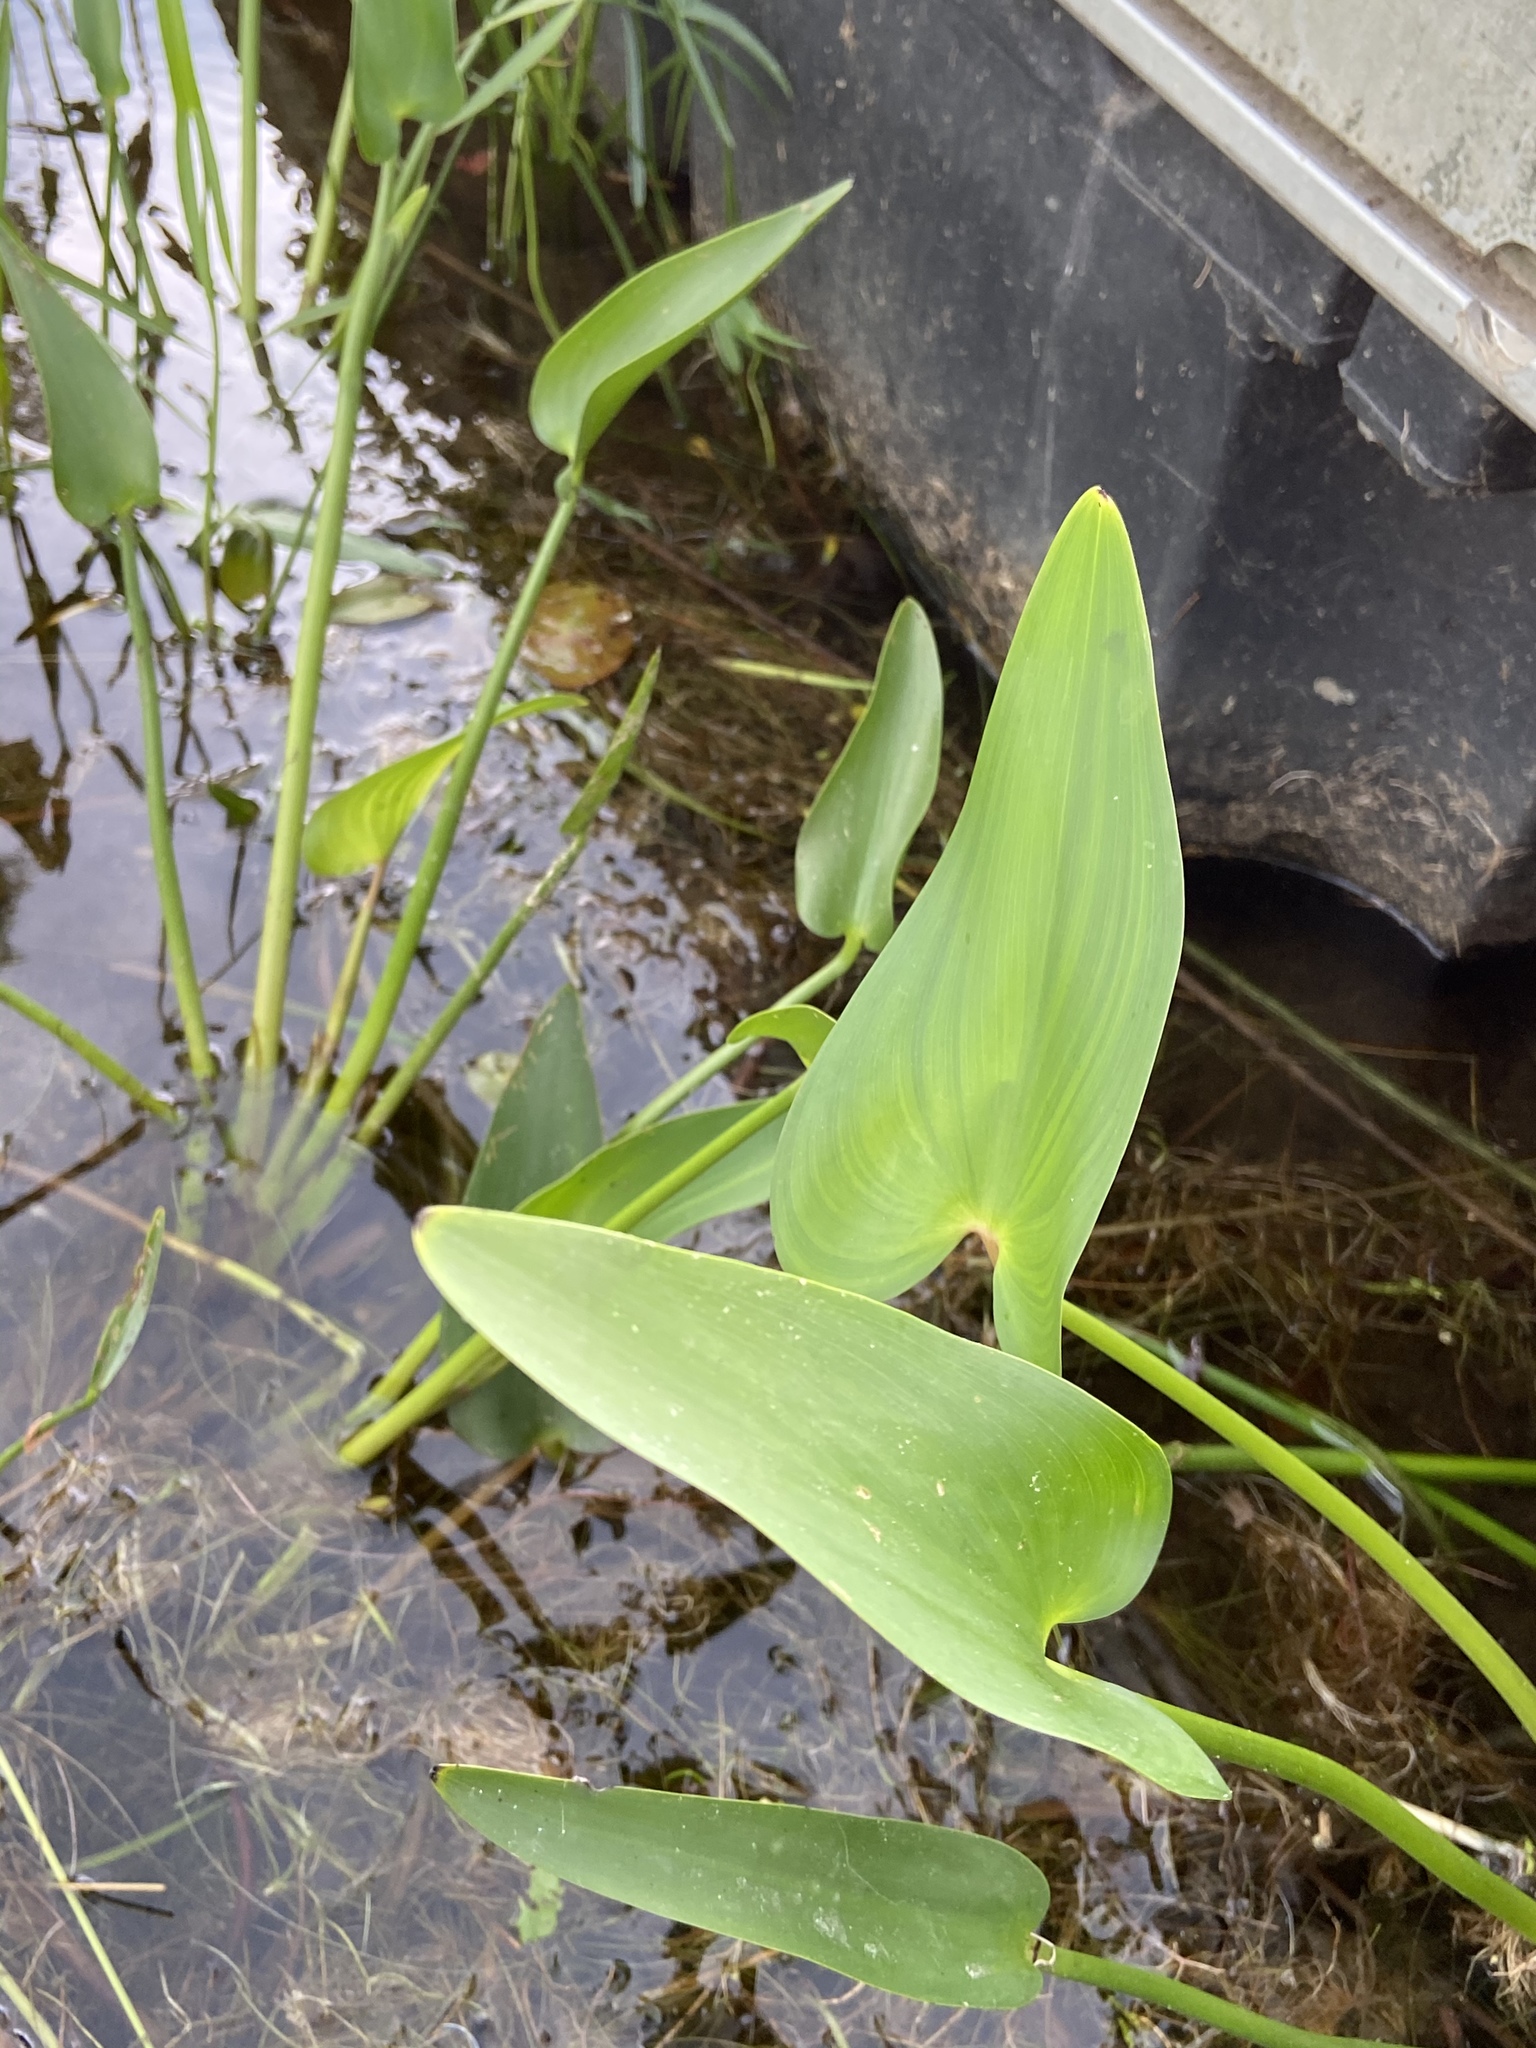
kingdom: Plantae
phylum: Tracheophyta
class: Liliopsida
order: Commelinales
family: Pontederiaceae
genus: Pontederia
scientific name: Pontederia cordata
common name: Pickerelweed
